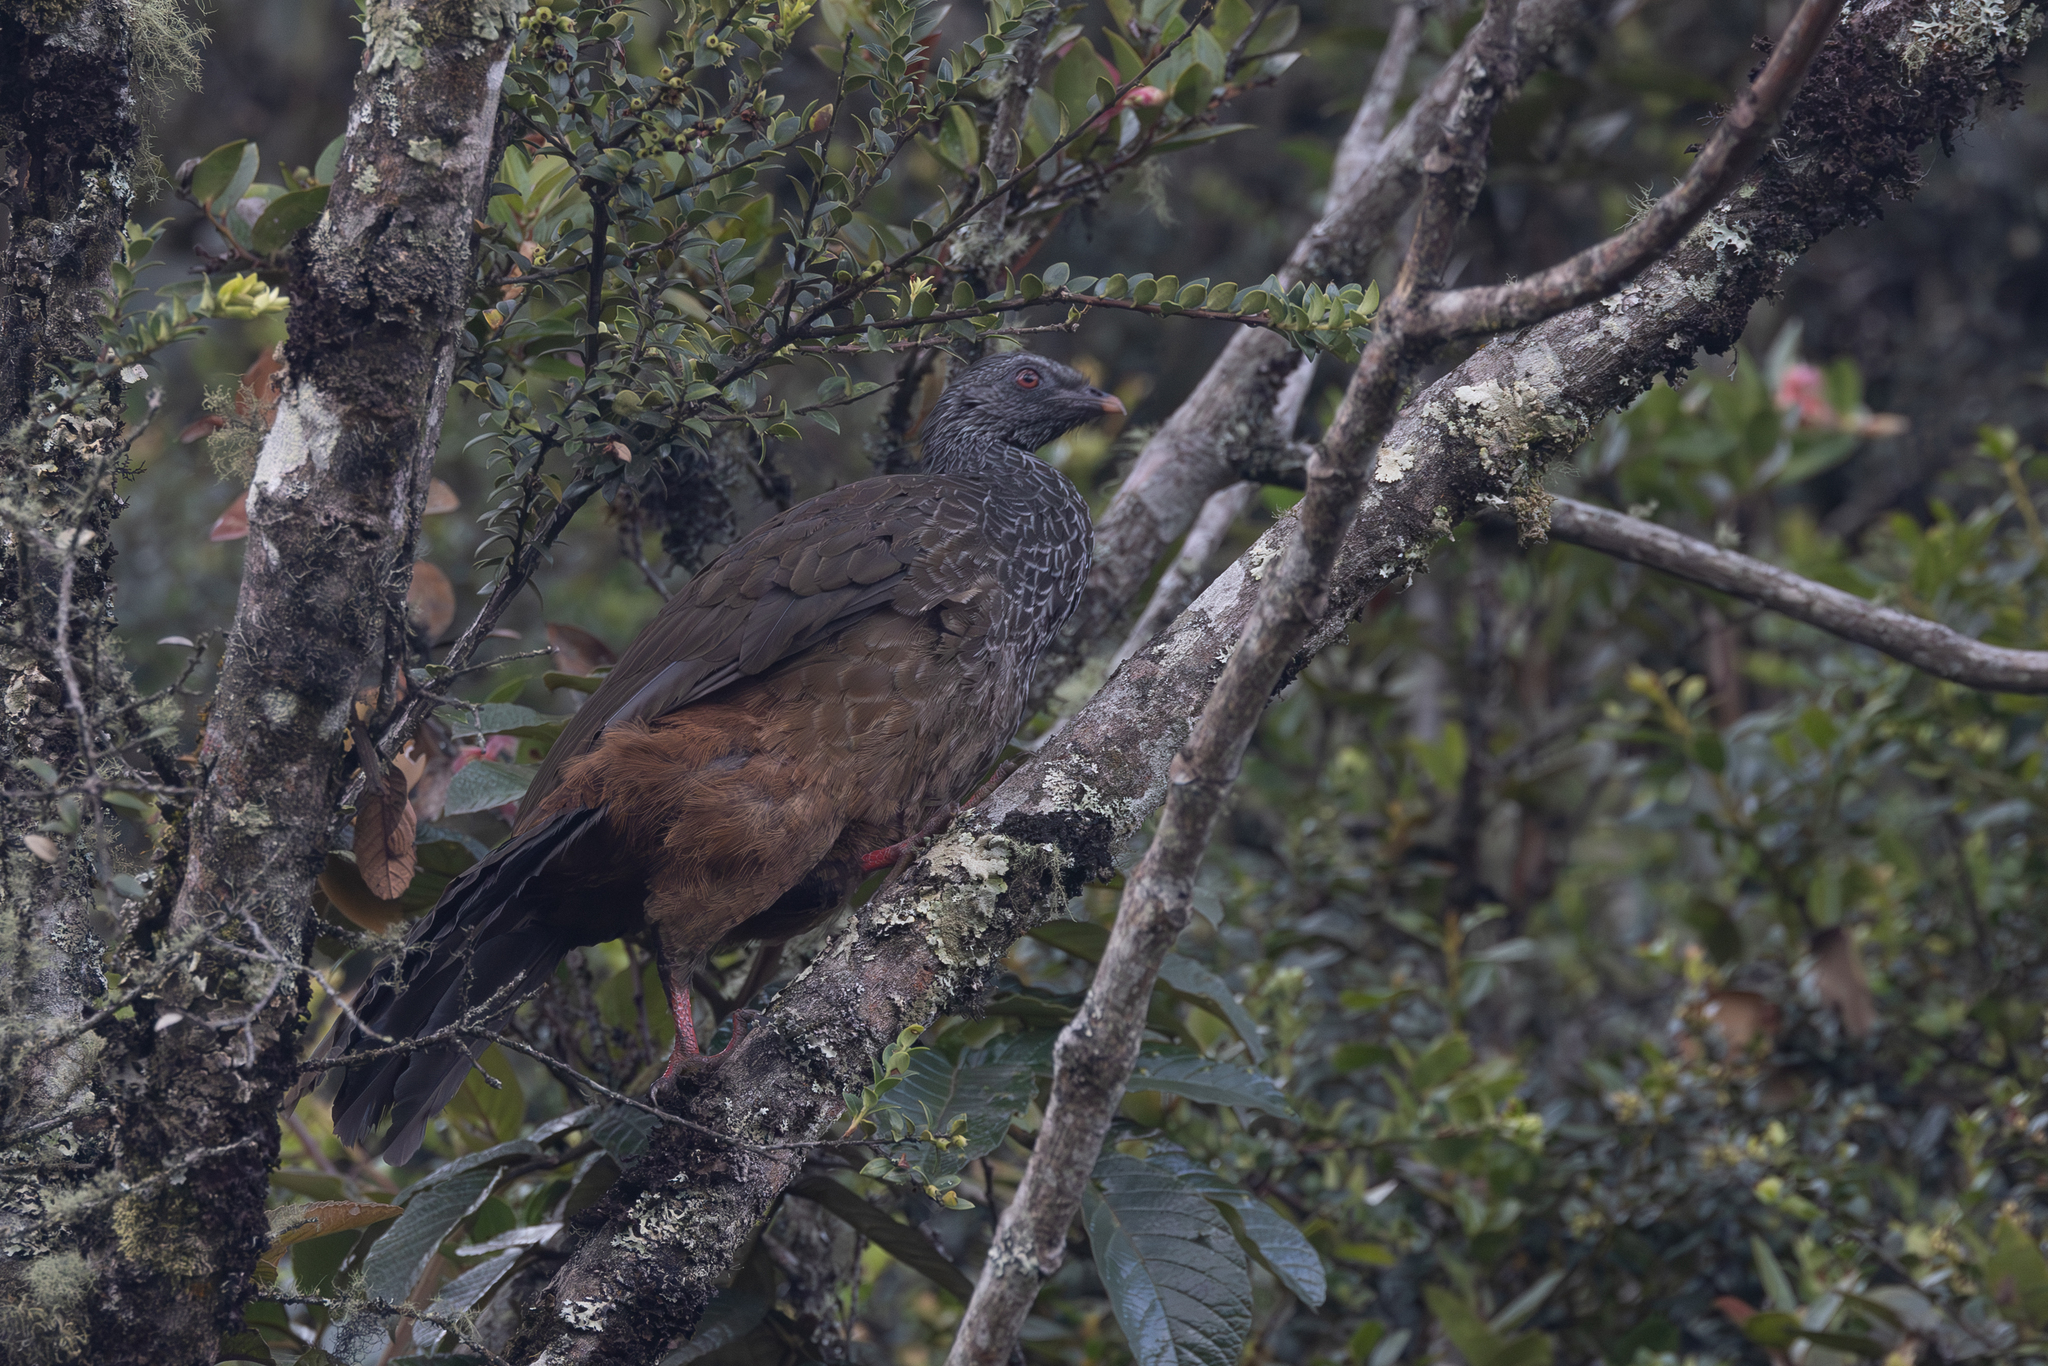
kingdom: Animalia
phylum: Chordata
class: Aves
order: Galliformes
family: Cracidae
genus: Penelope
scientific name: Penelope montagnii
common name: Andean guan
